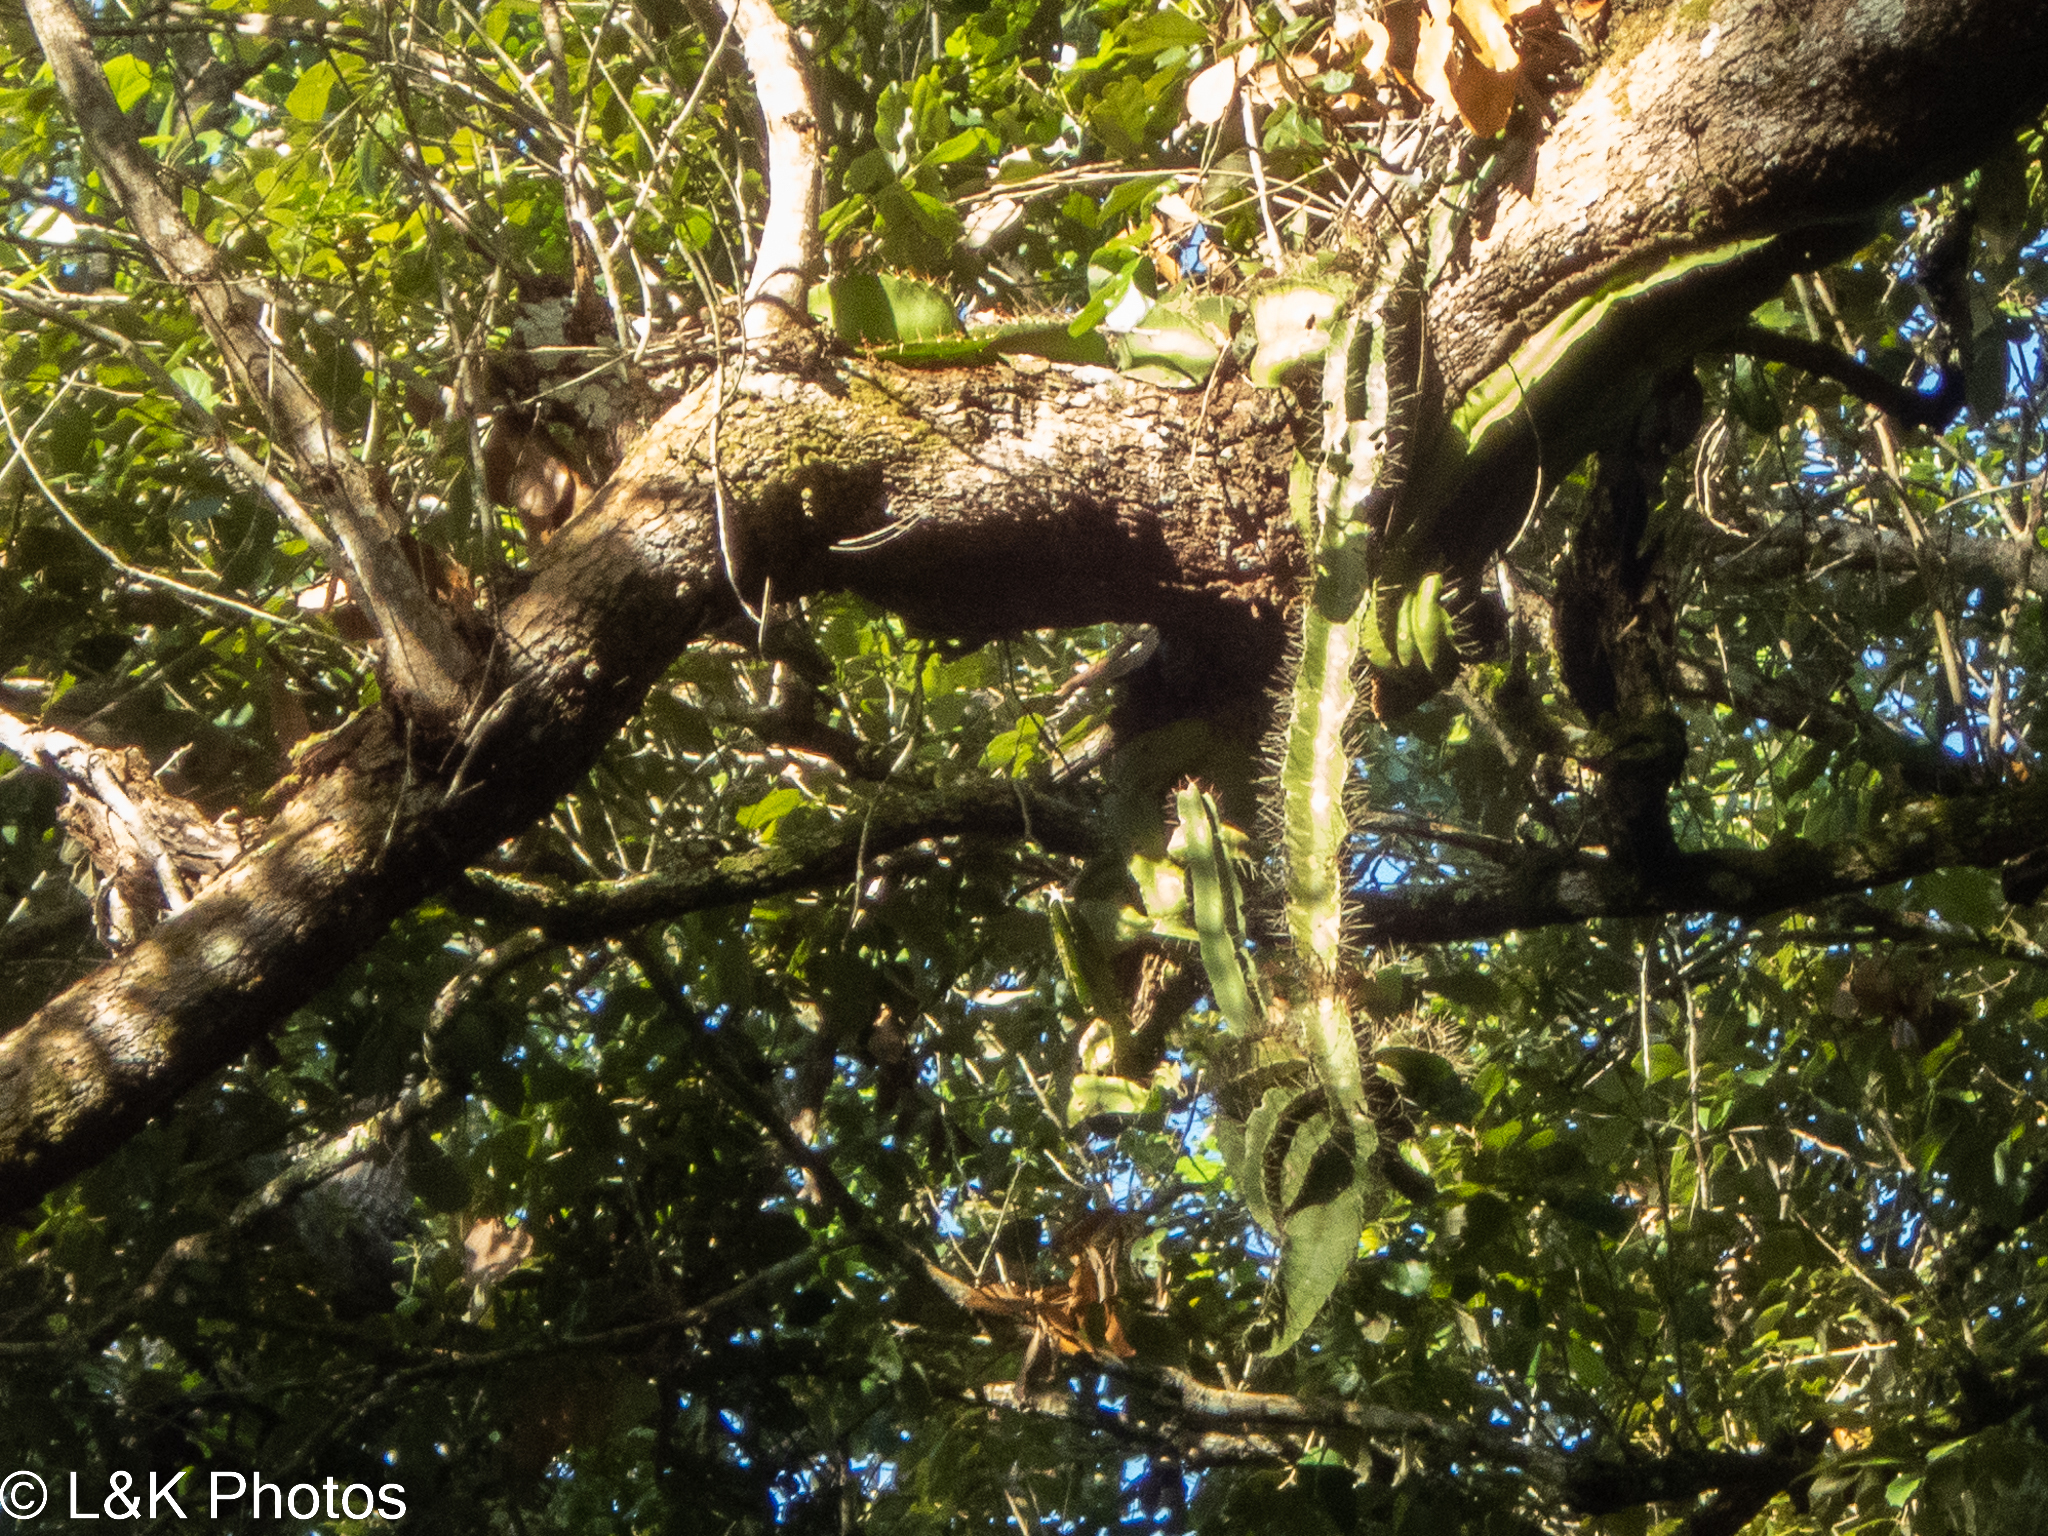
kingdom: Plantae
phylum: Tracheophyta
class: Magnoliopsida
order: Caryophyllales
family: Cactaceae
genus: Deamia
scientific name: Deamia testudo
